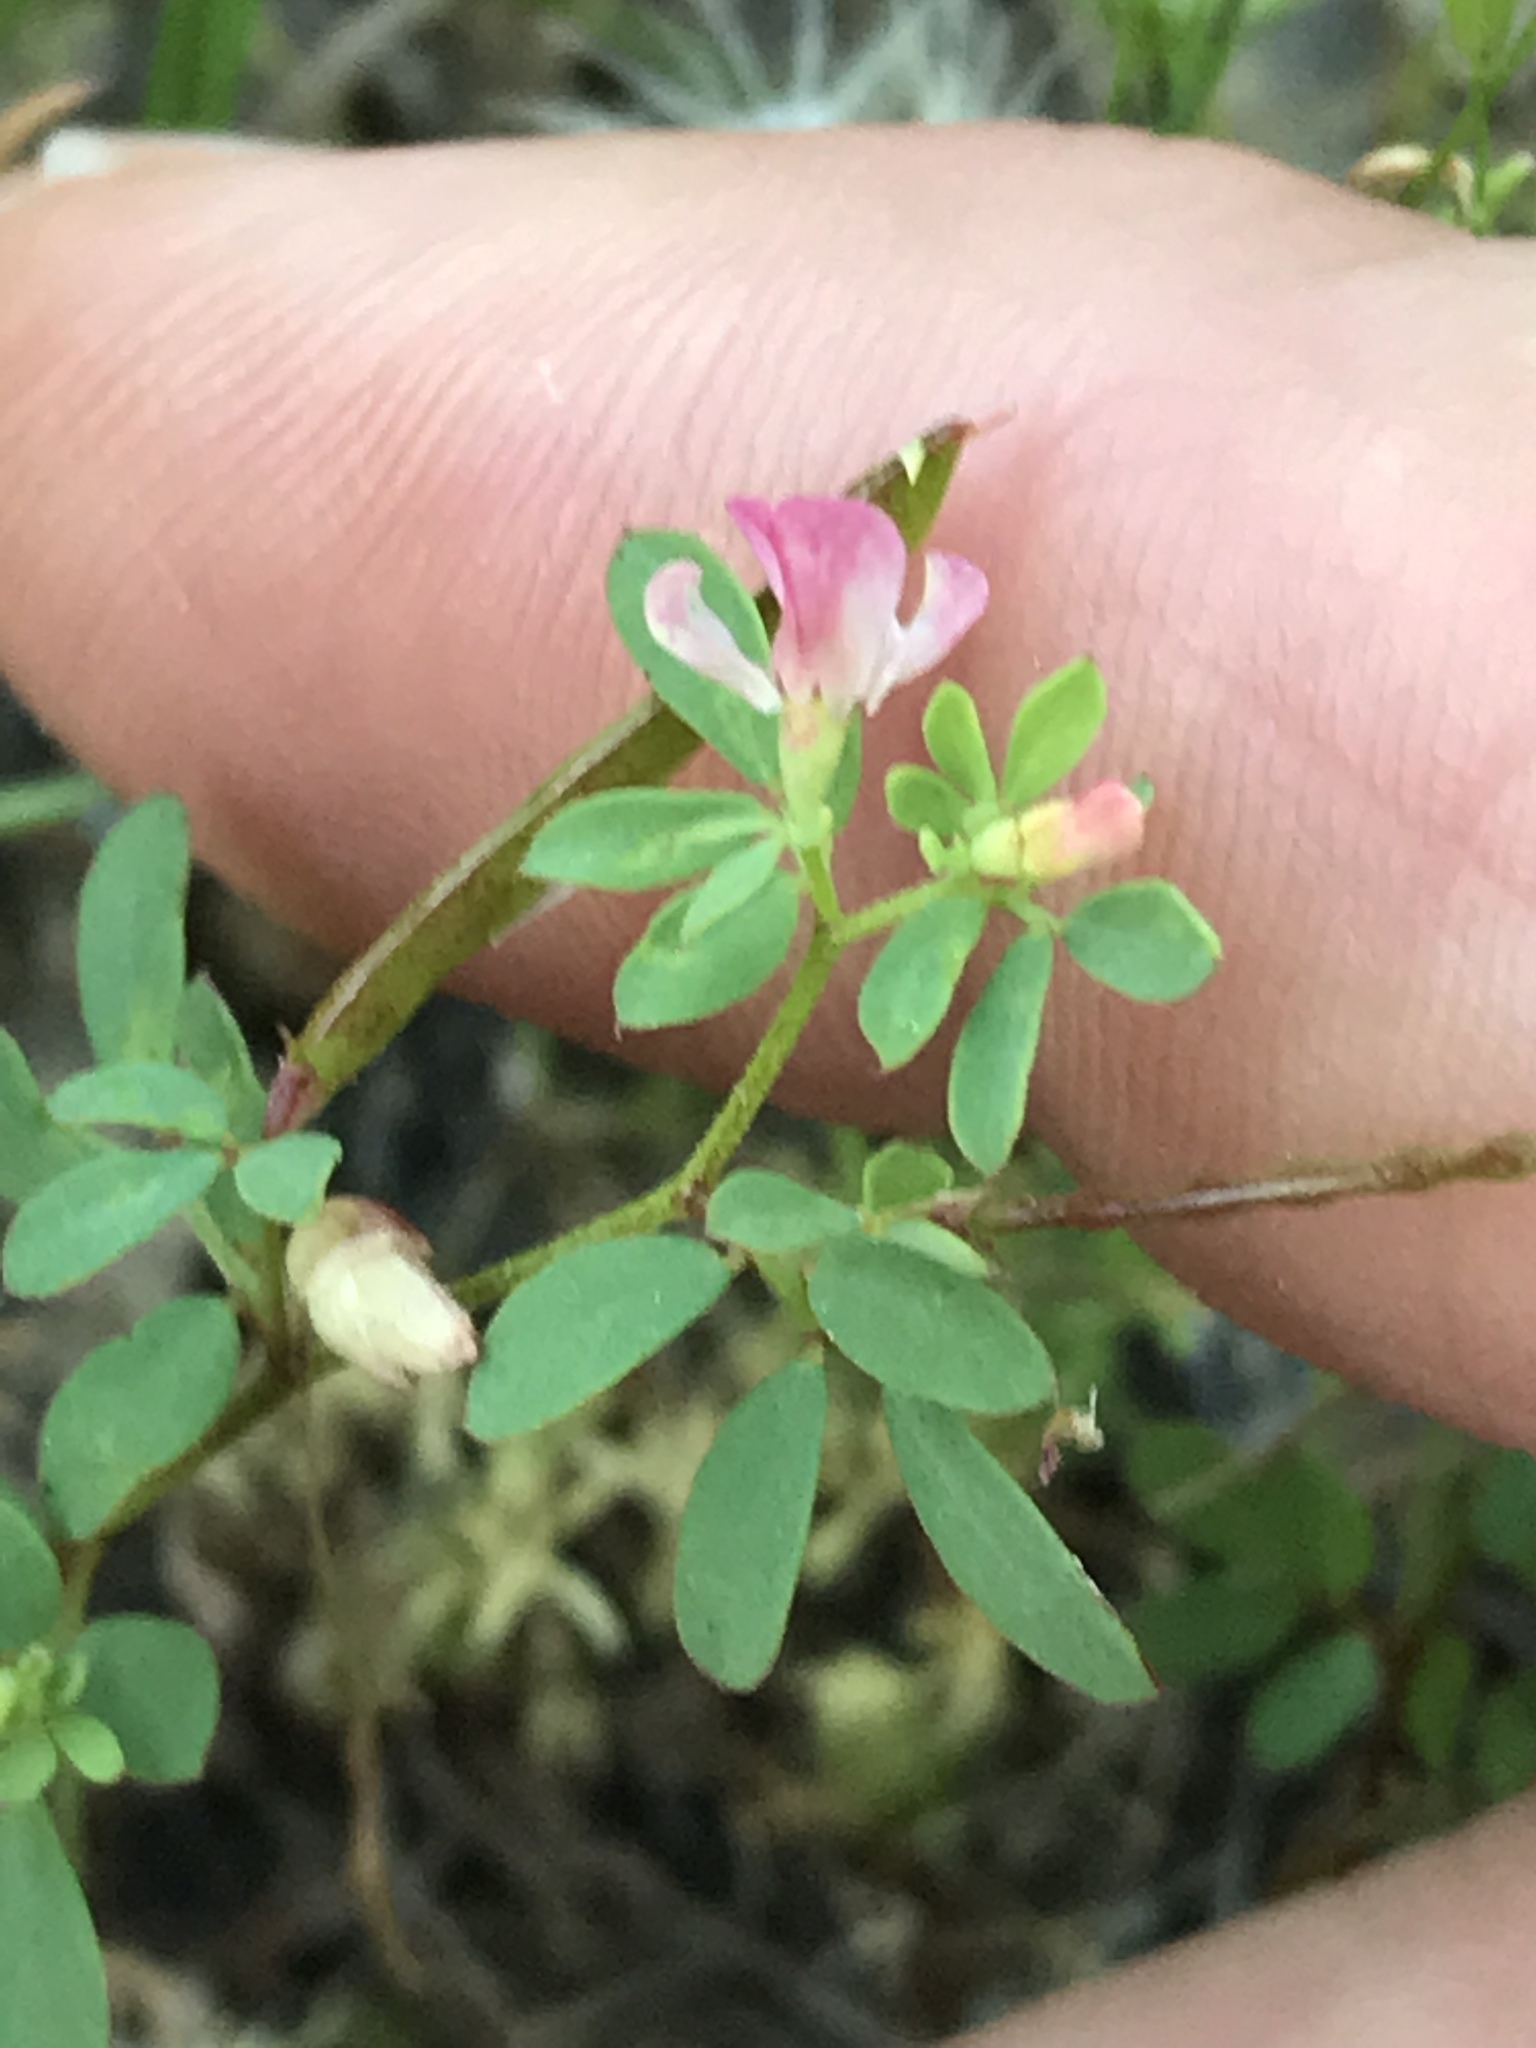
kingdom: Plantae
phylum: Tracheophyta
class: Magnoliopsida
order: Fabales
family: Fabaceae
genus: Acmispon
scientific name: Acmispon parviflorus
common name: Desert deer-vetch
